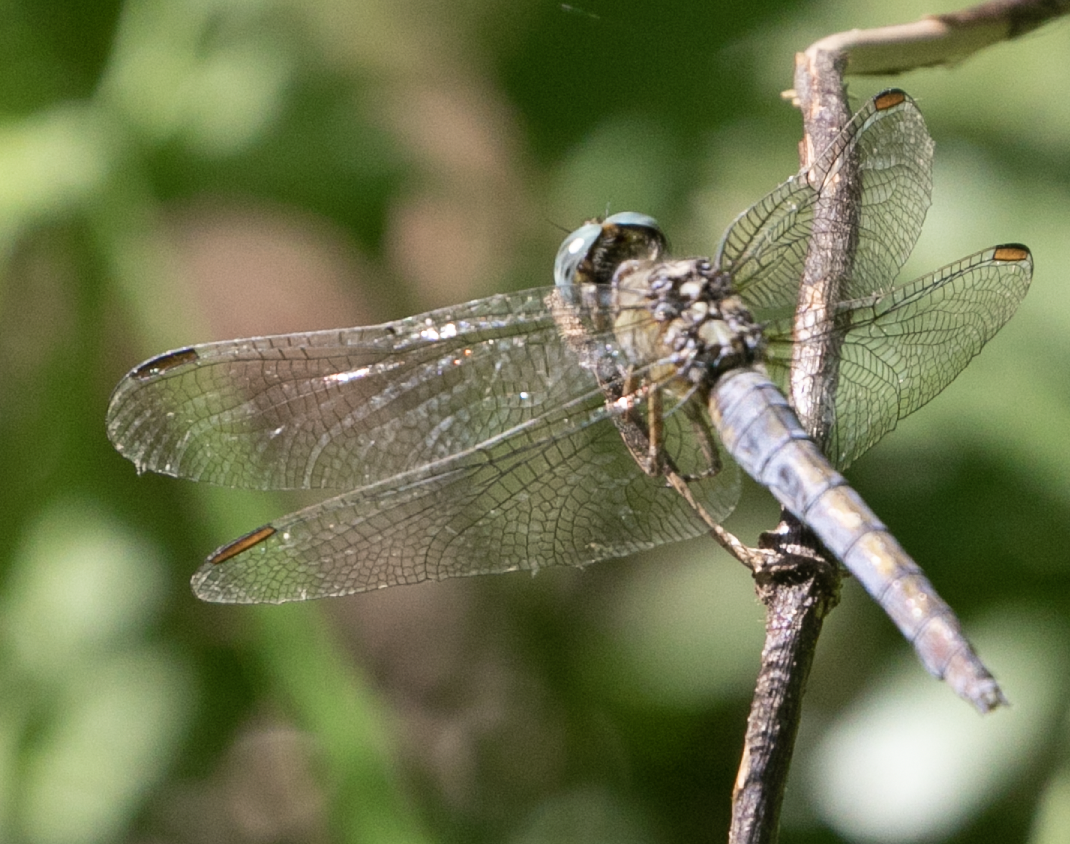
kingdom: Animalia
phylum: Arthropoda
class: Insecta
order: Odonata
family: Libellulidae
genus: Orthetrum
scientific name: Orthetrum coerulescens
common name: Keeled skimmer
